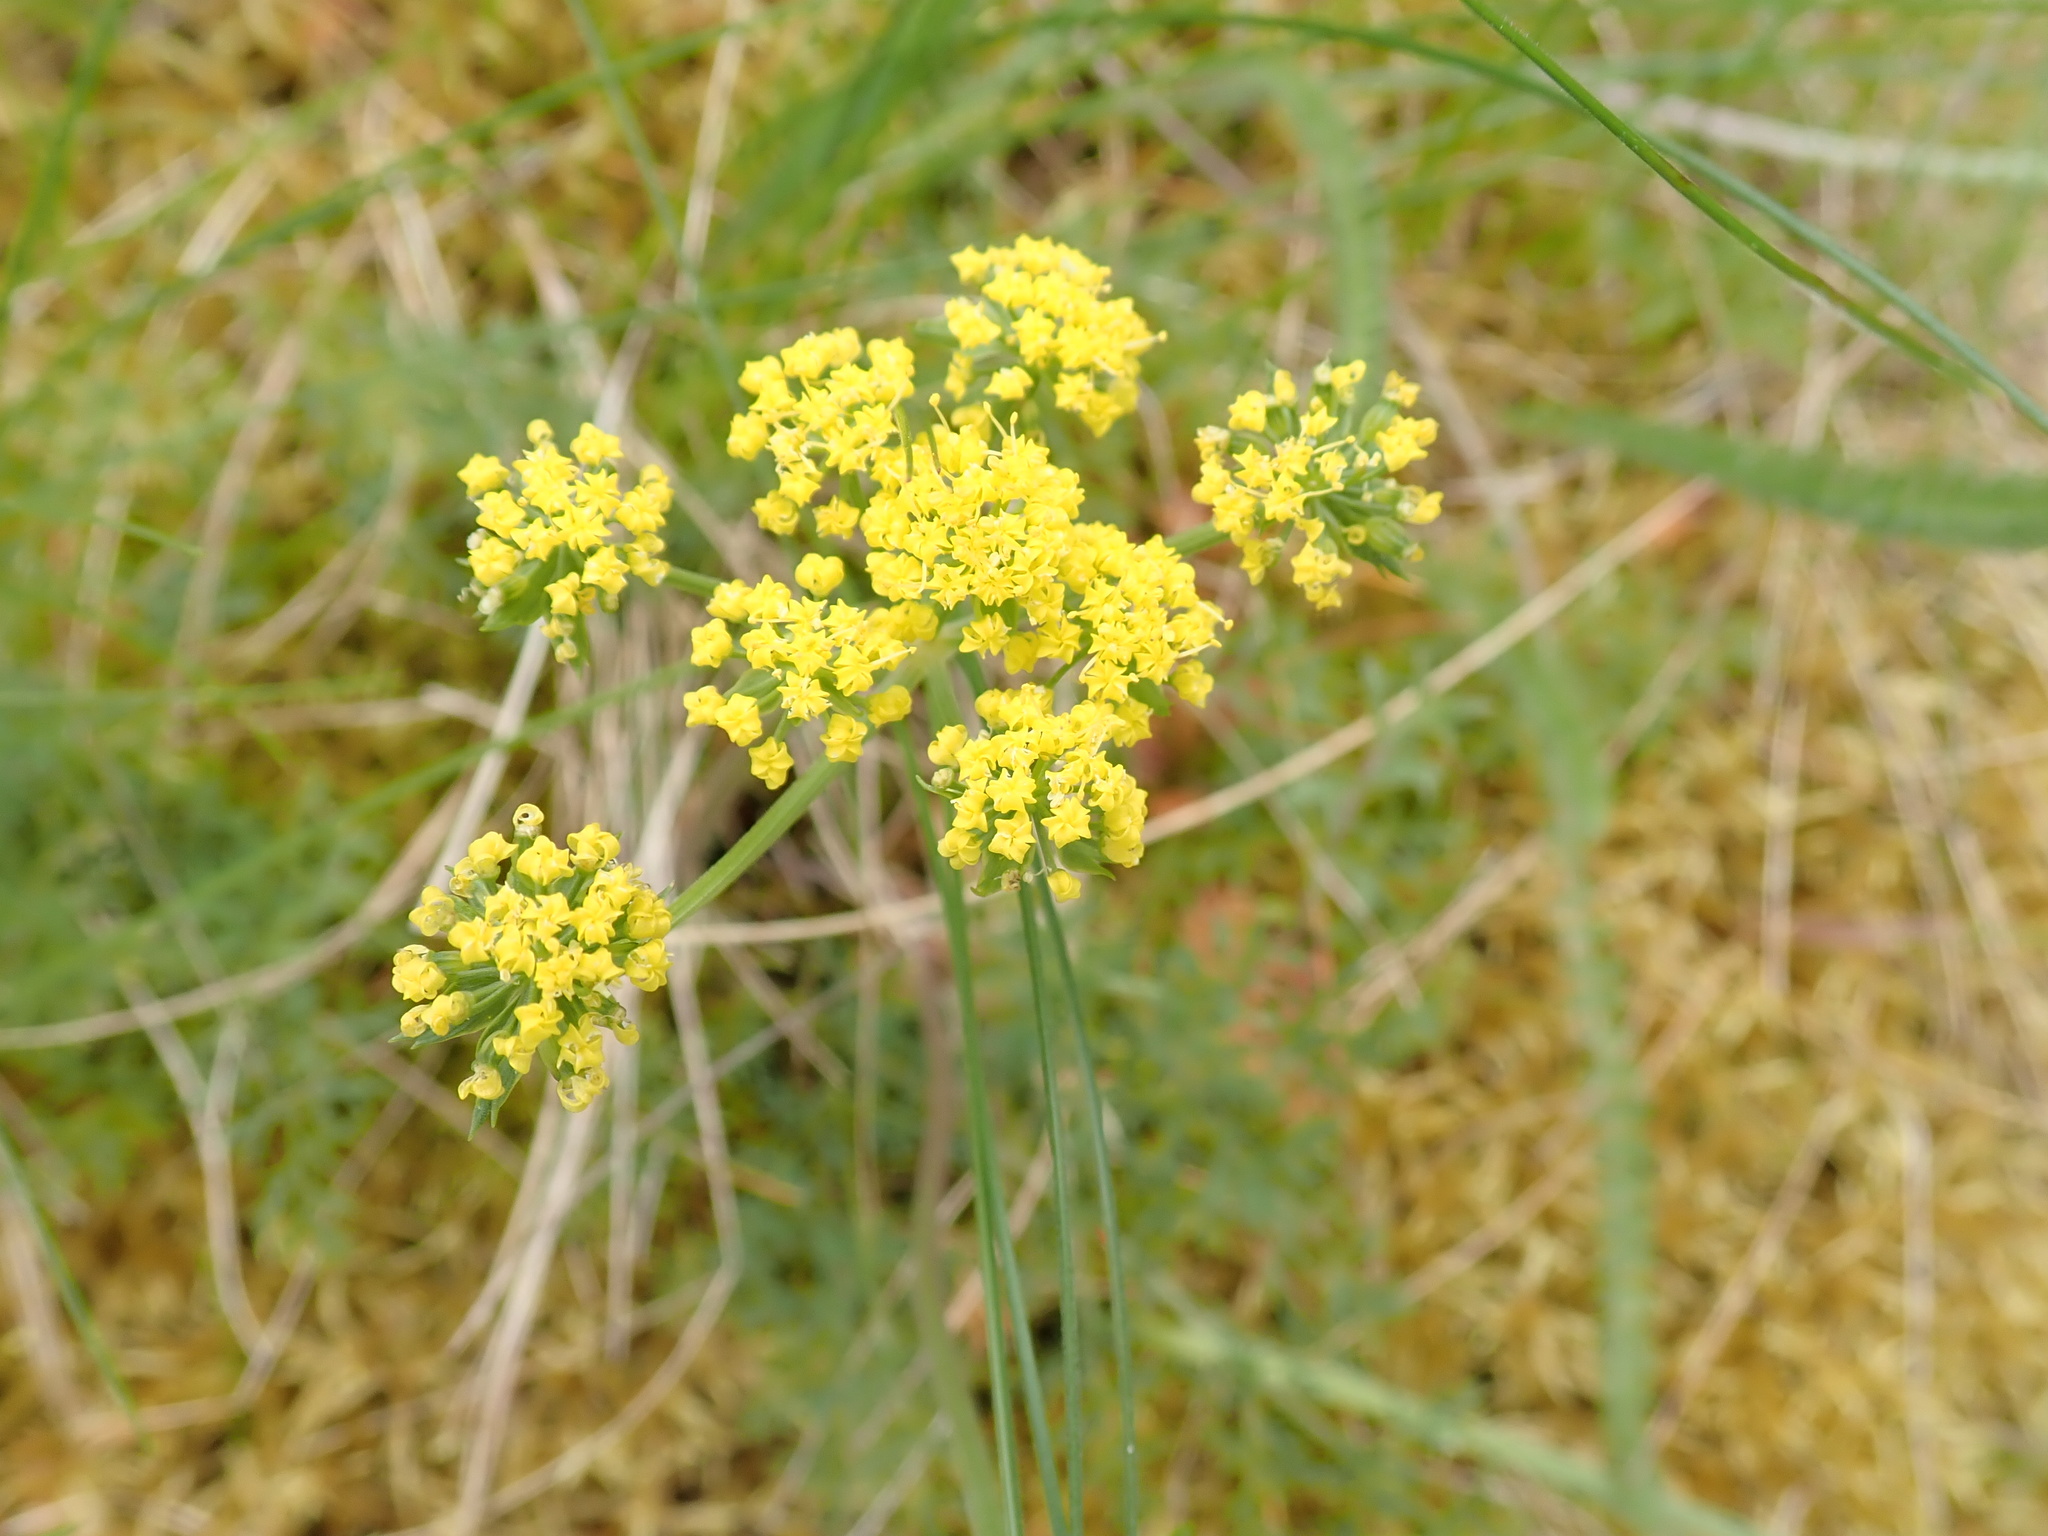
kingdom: Plantae
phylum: Tracheophyta
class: Magnoliopsida
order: Apiales
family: Apiaceae
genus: Lomatium
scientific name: Lomatium utriculatum
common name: Fine-leaf desert-parsley
